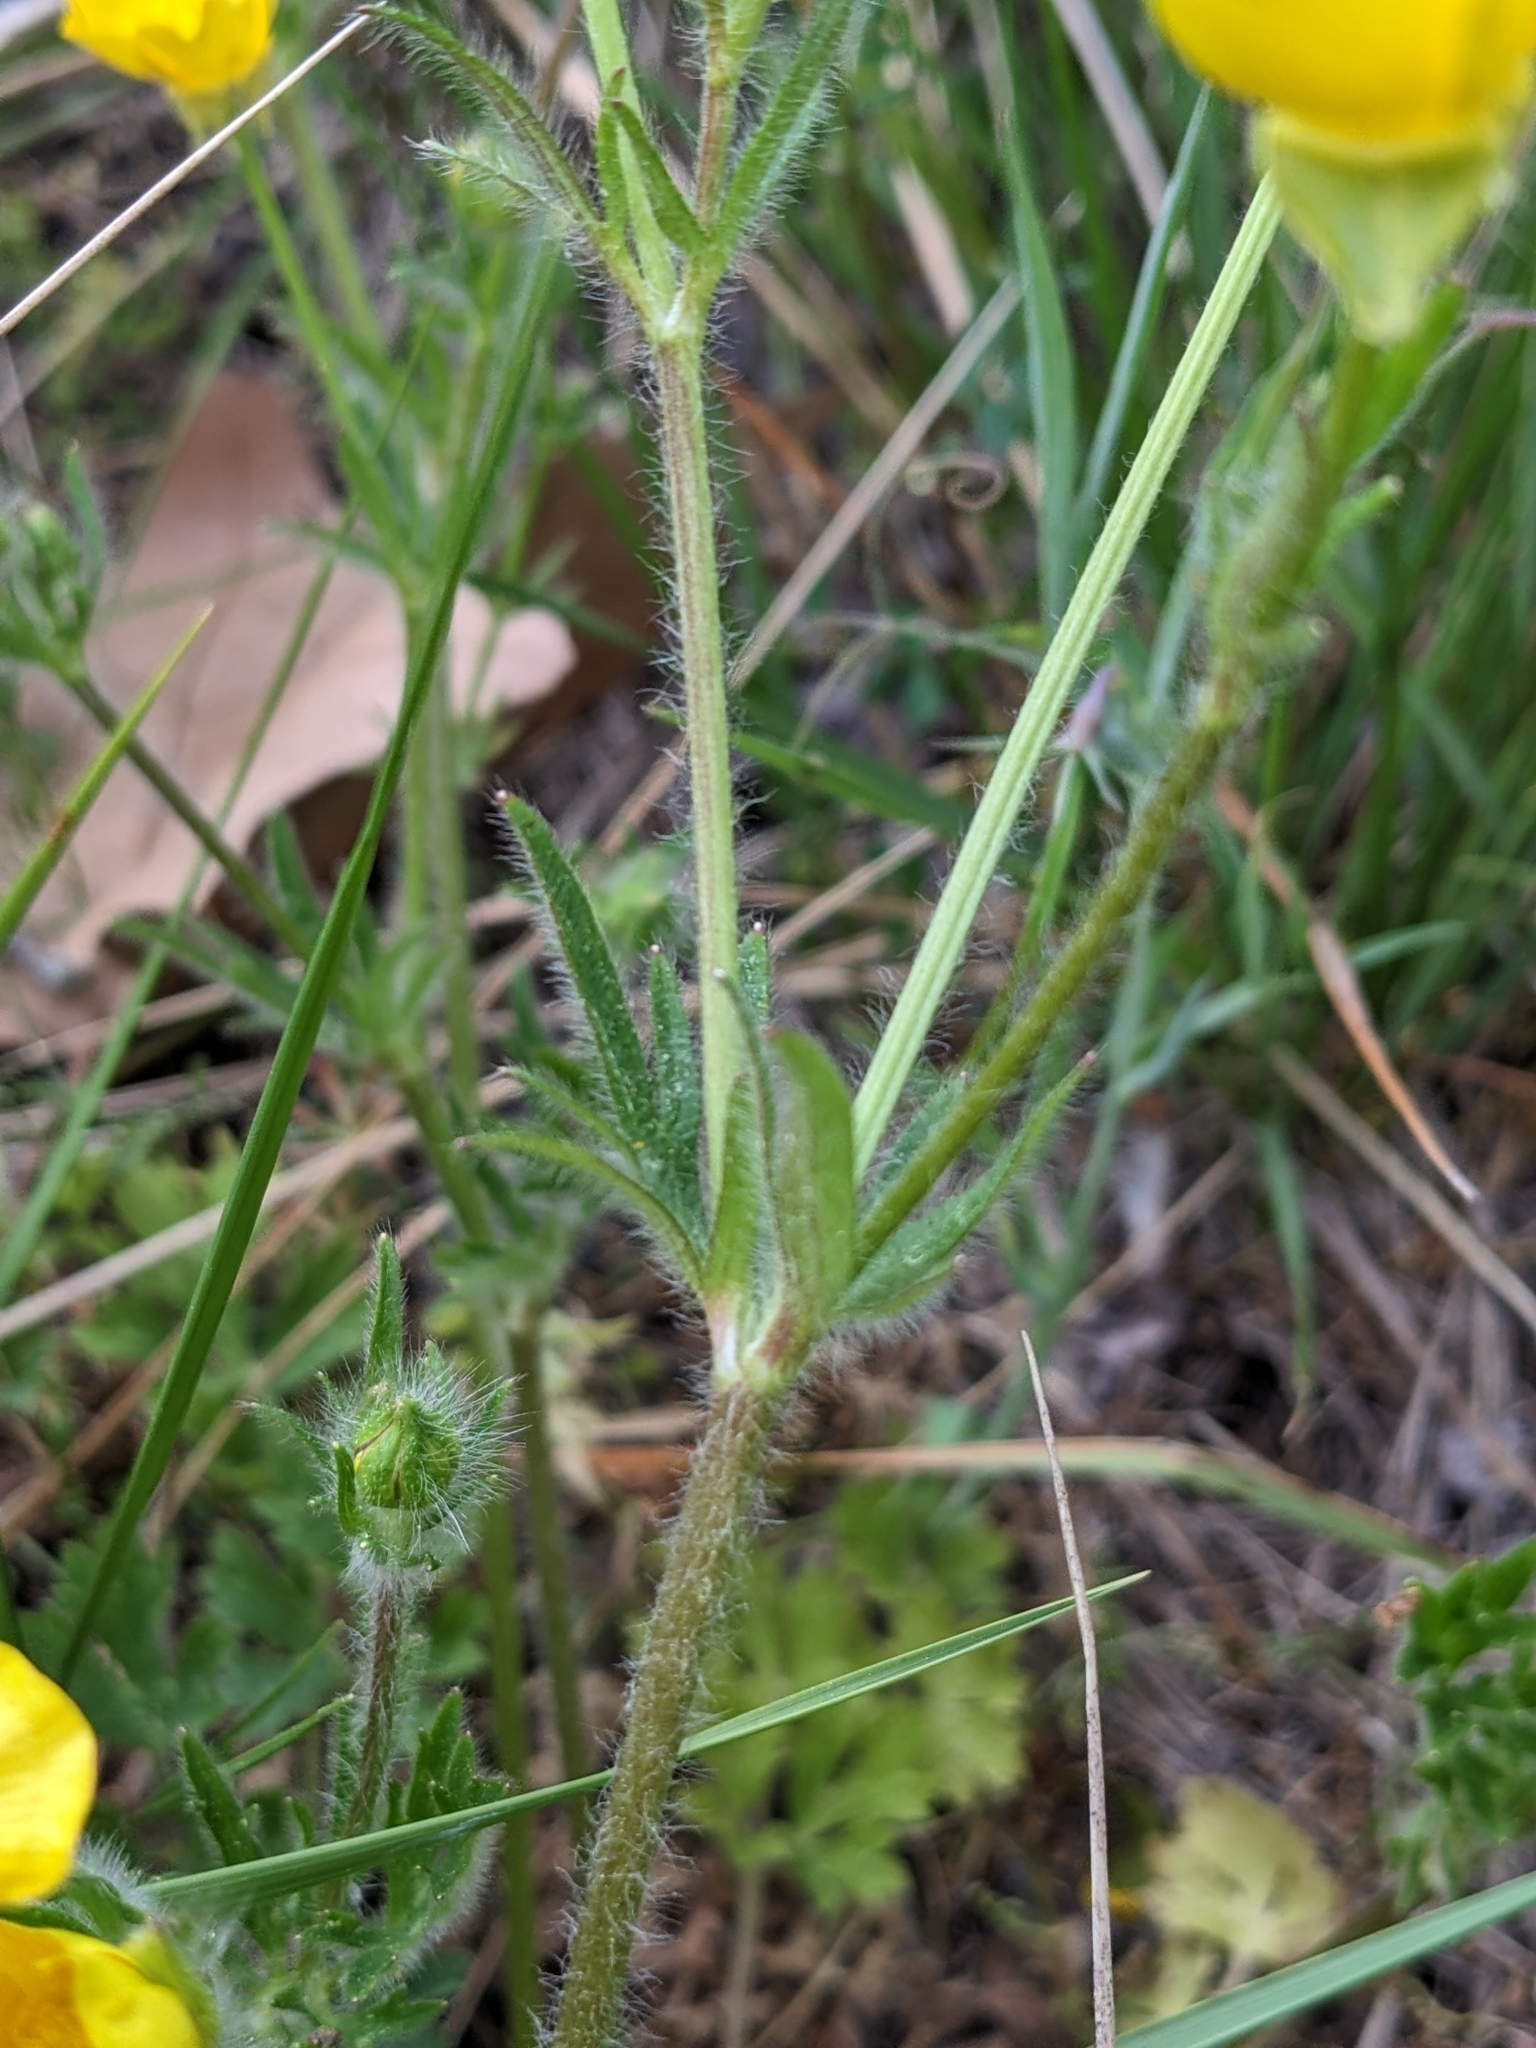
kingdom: Plantae
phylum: Tracheophyta
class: Magnoliopsida
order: Ranunculales
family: Ranunculaceae
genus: Ranunculus
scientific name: Ranunculus bulbosus
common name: Bulbous buttercup
